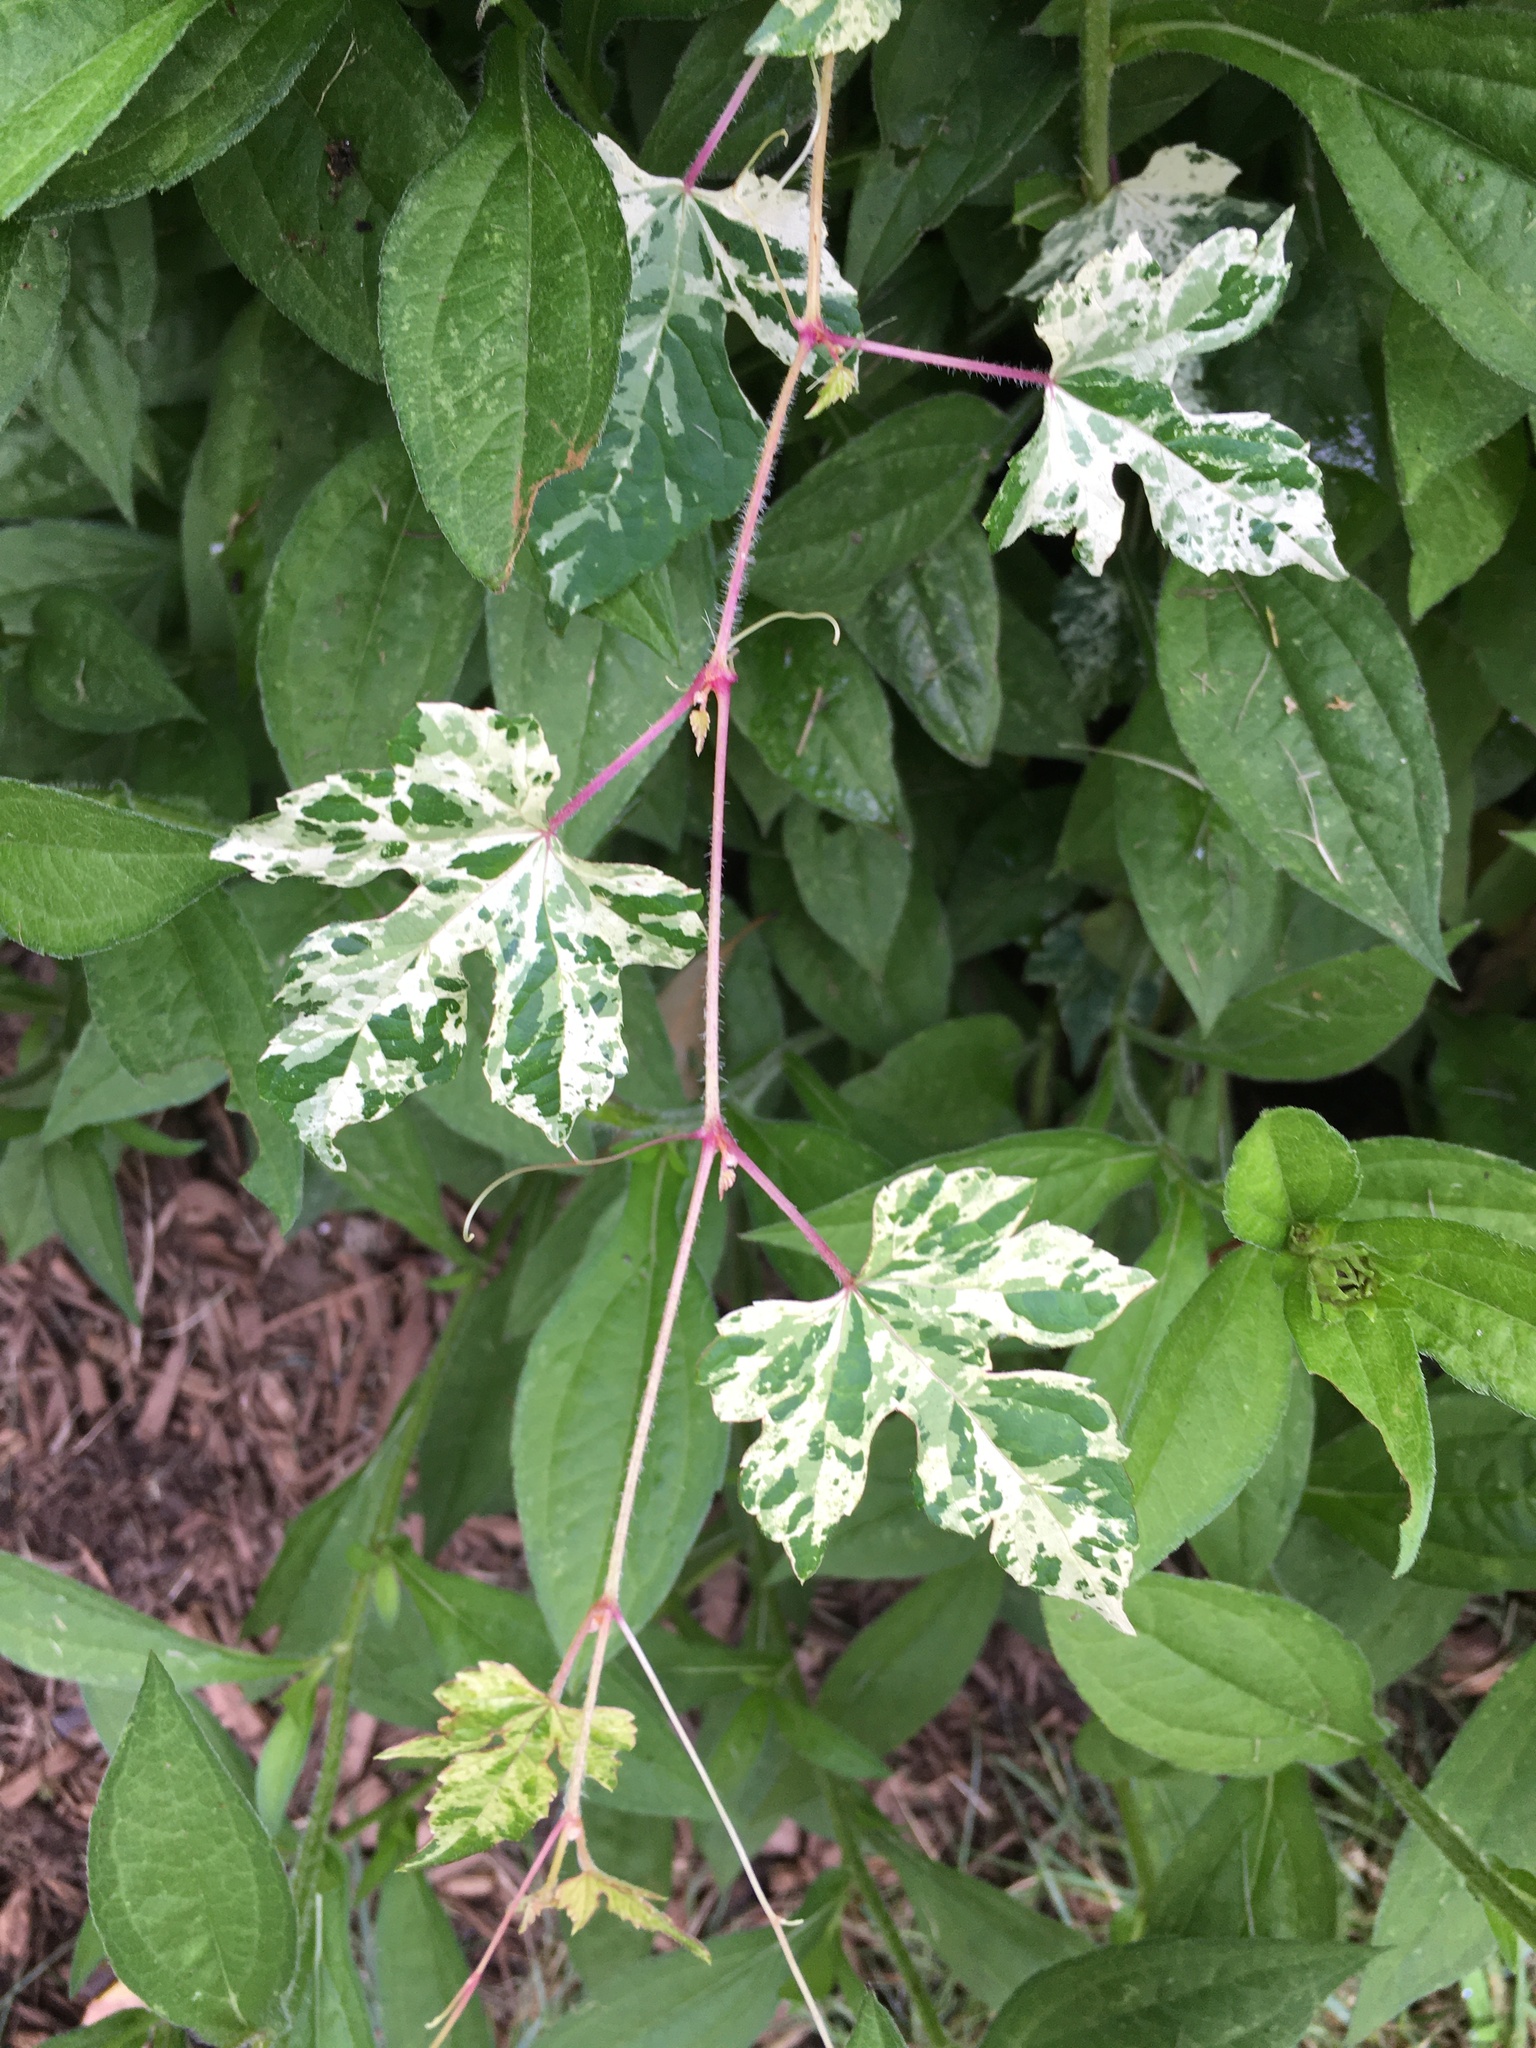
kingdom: Plantae
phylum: Tracheophyta
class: Magnoliopsida
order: Vitales
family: Vitaceae
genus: Ampelopsis
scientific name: Ampelopsis glandulosa
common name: Amur peppervine
